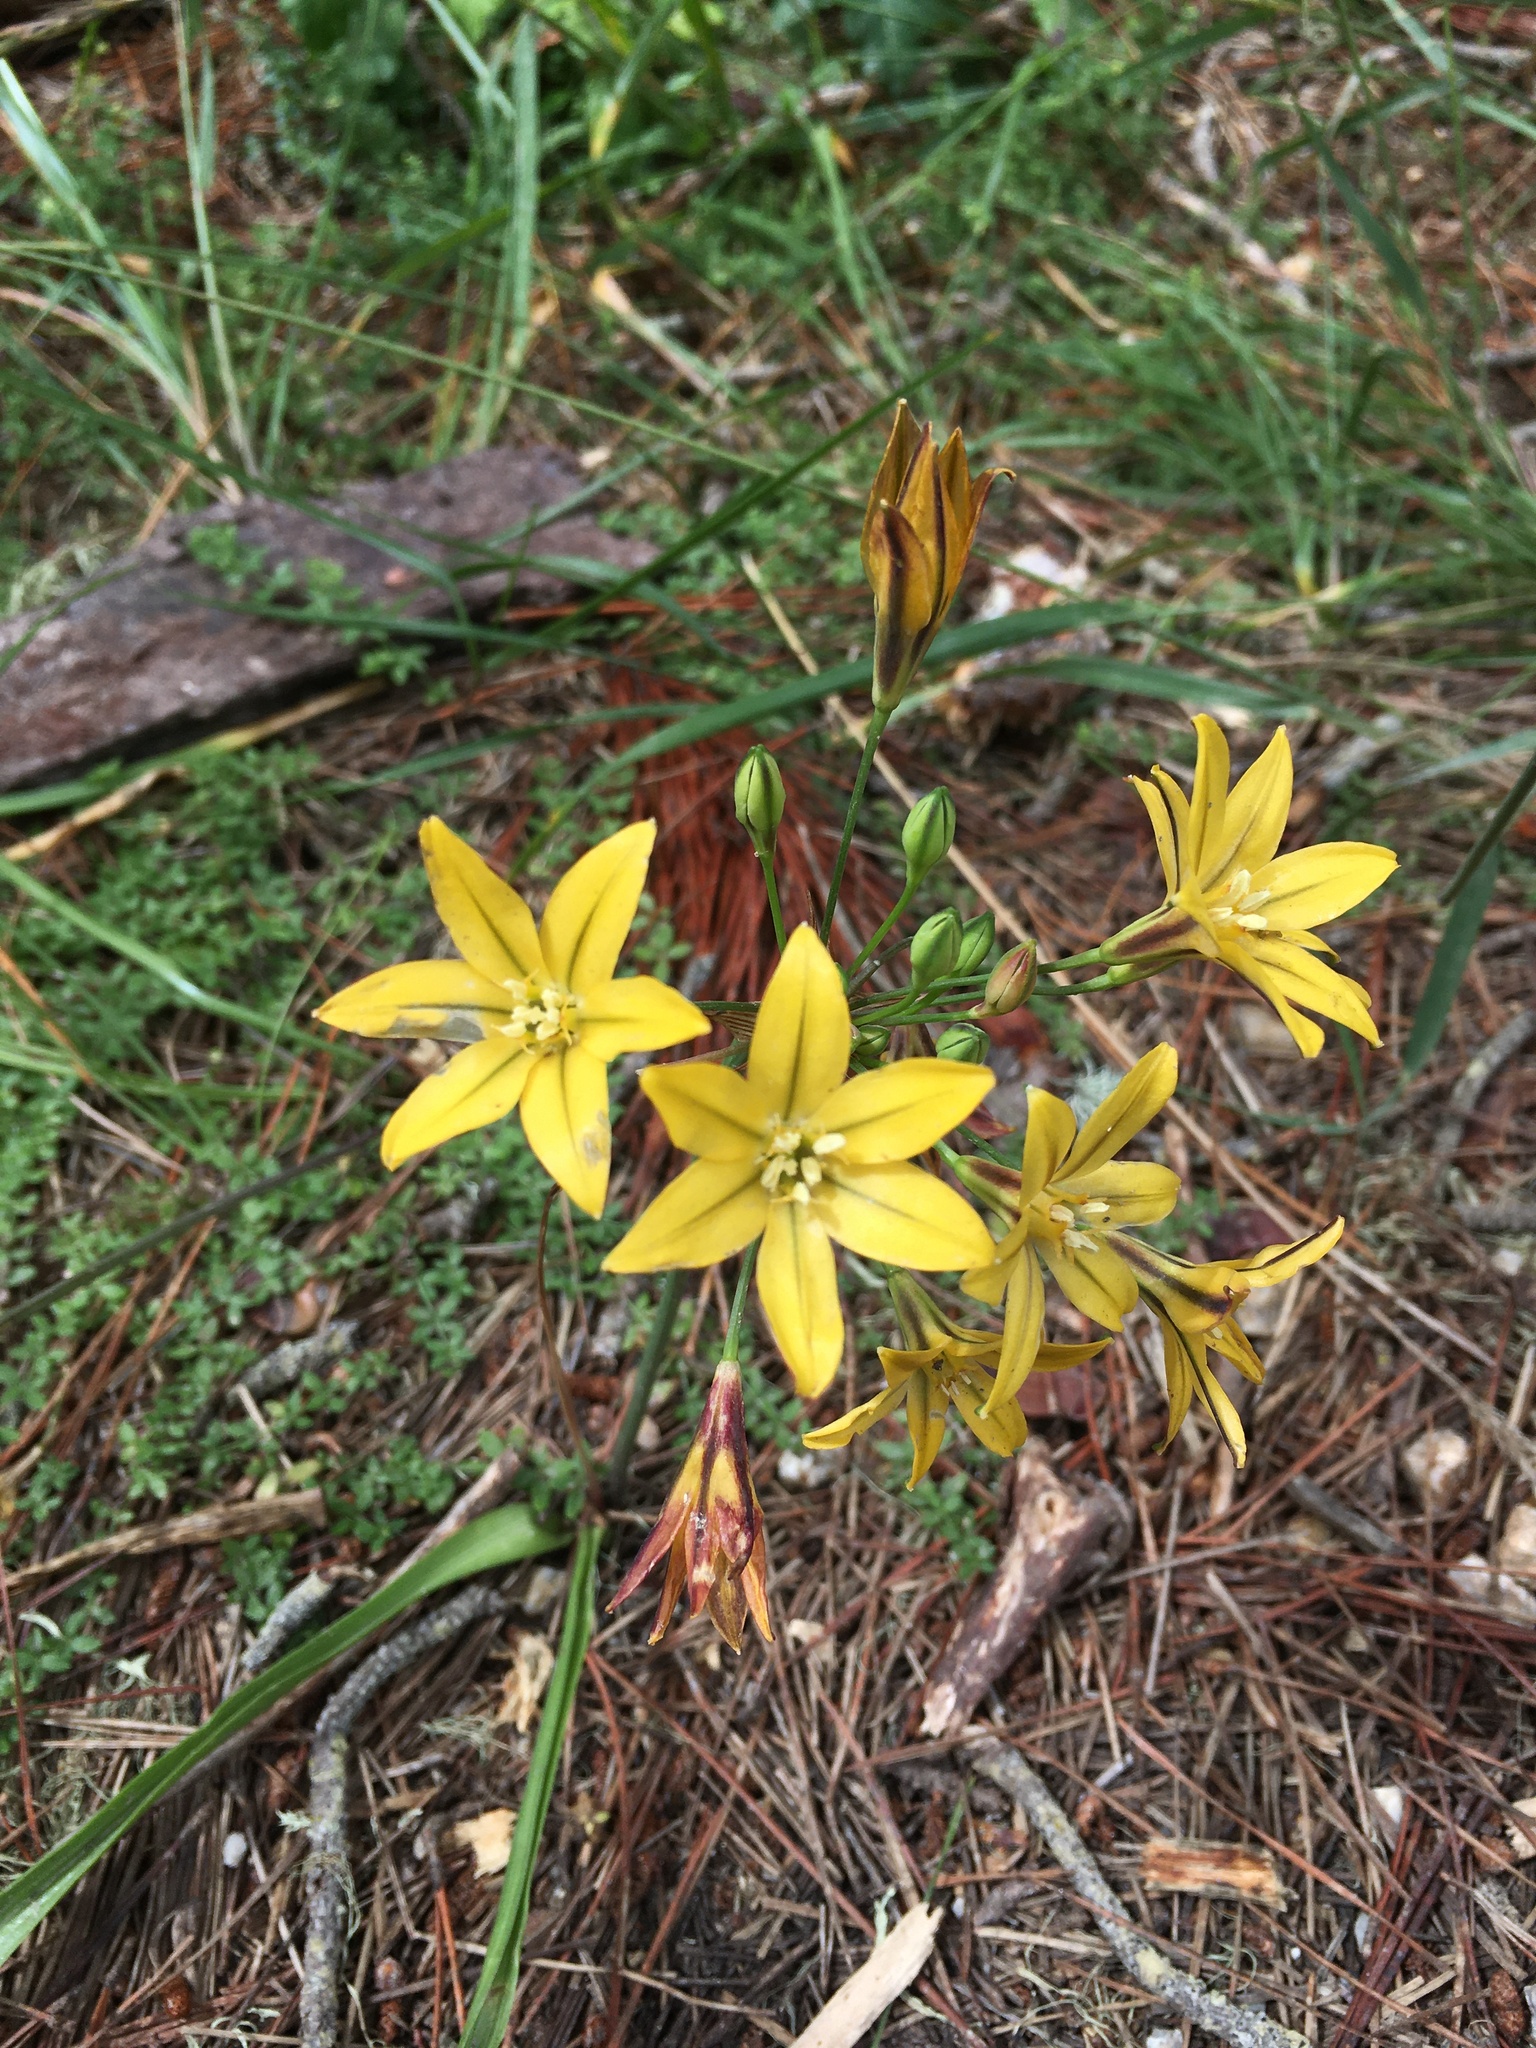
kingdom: Plantae
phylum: Tracheophyta
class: Liliopsida
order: Asparagales
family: Asparagaceae
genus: Triteleia
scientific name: Triteleia ixioides
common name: Yellow-brodiaea
